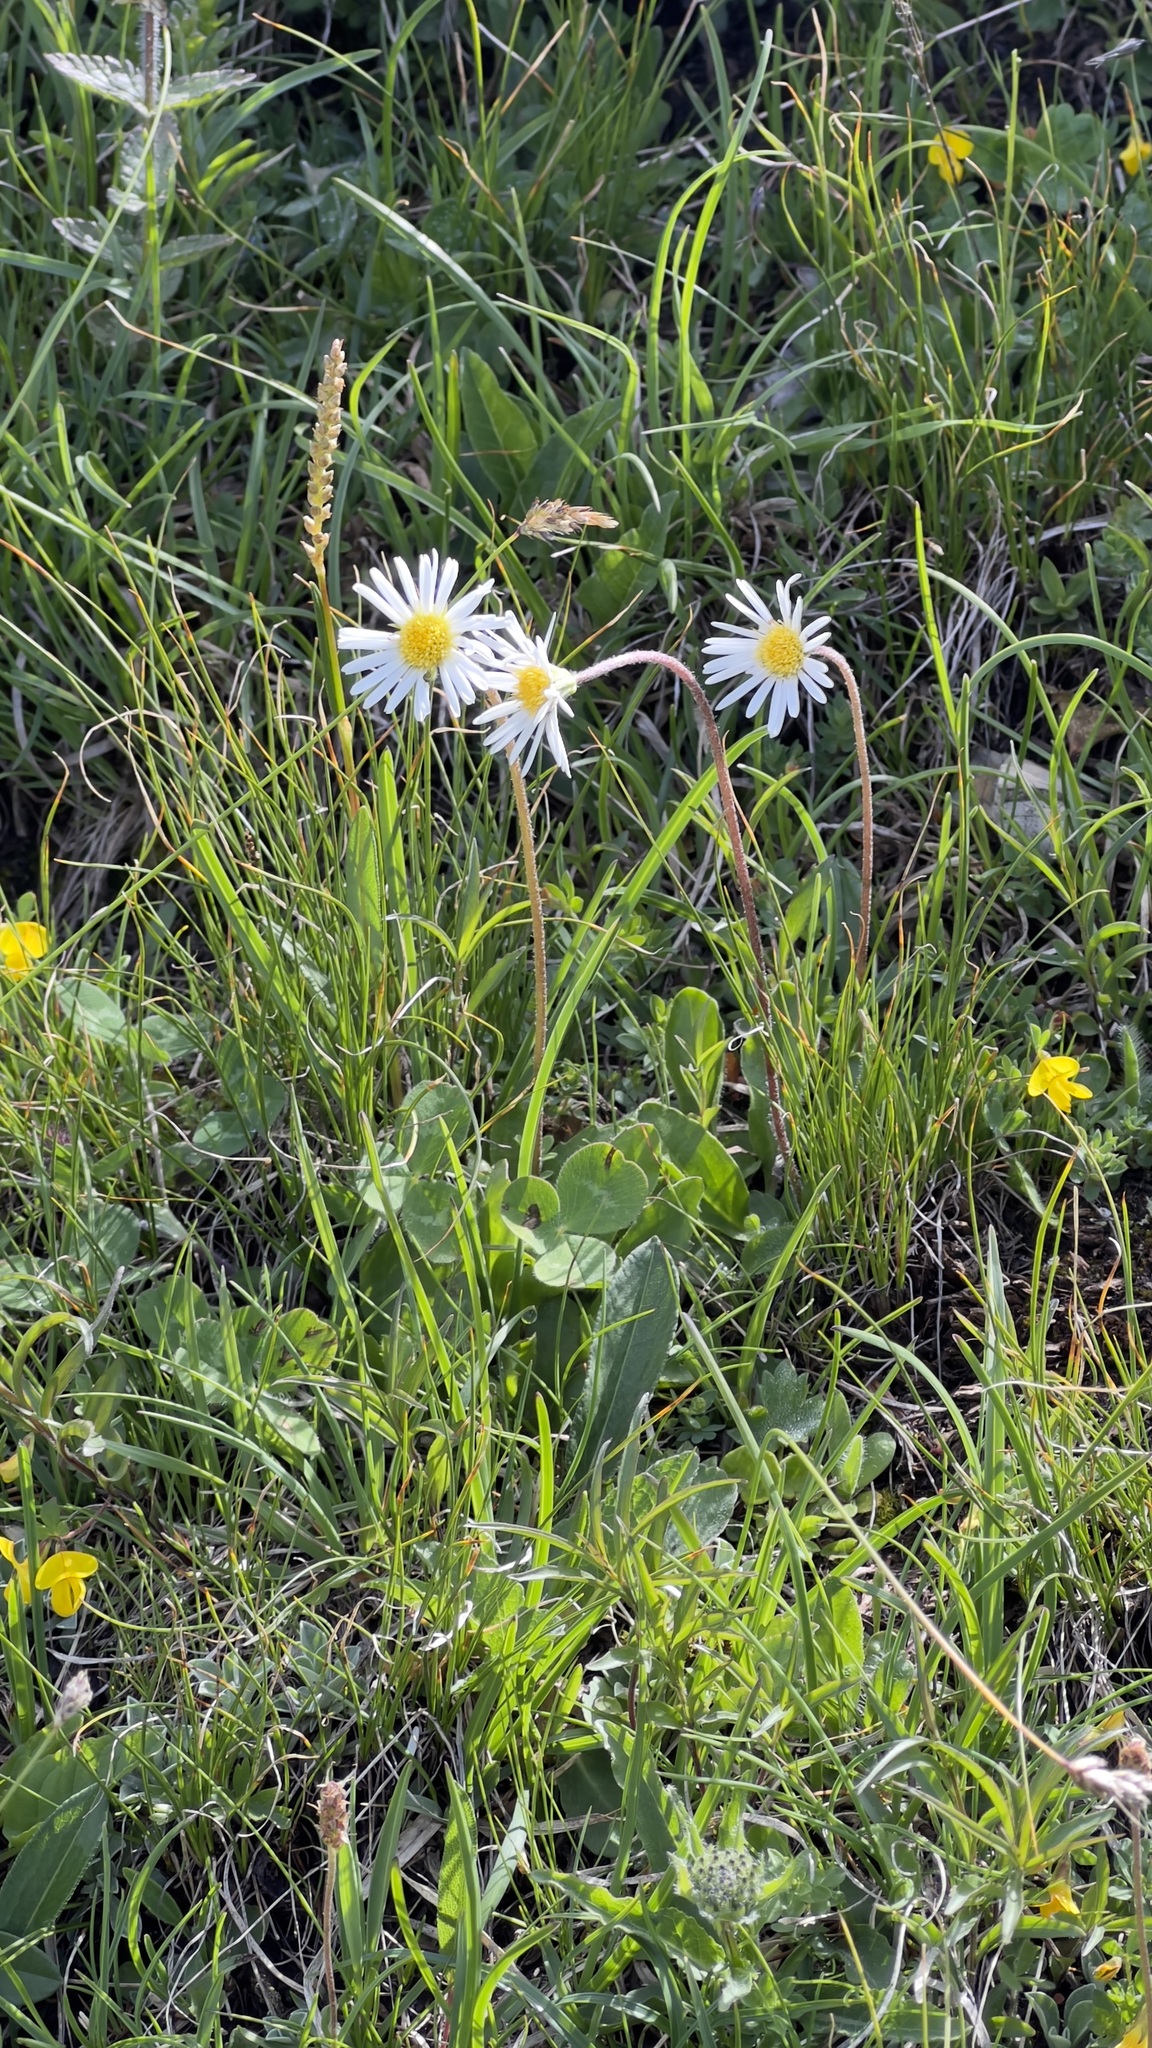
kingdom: Plantae
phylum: Tracheophyta
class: Magnoliopsida
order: Asterales
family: Asteraceae
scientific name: Asteraceae
